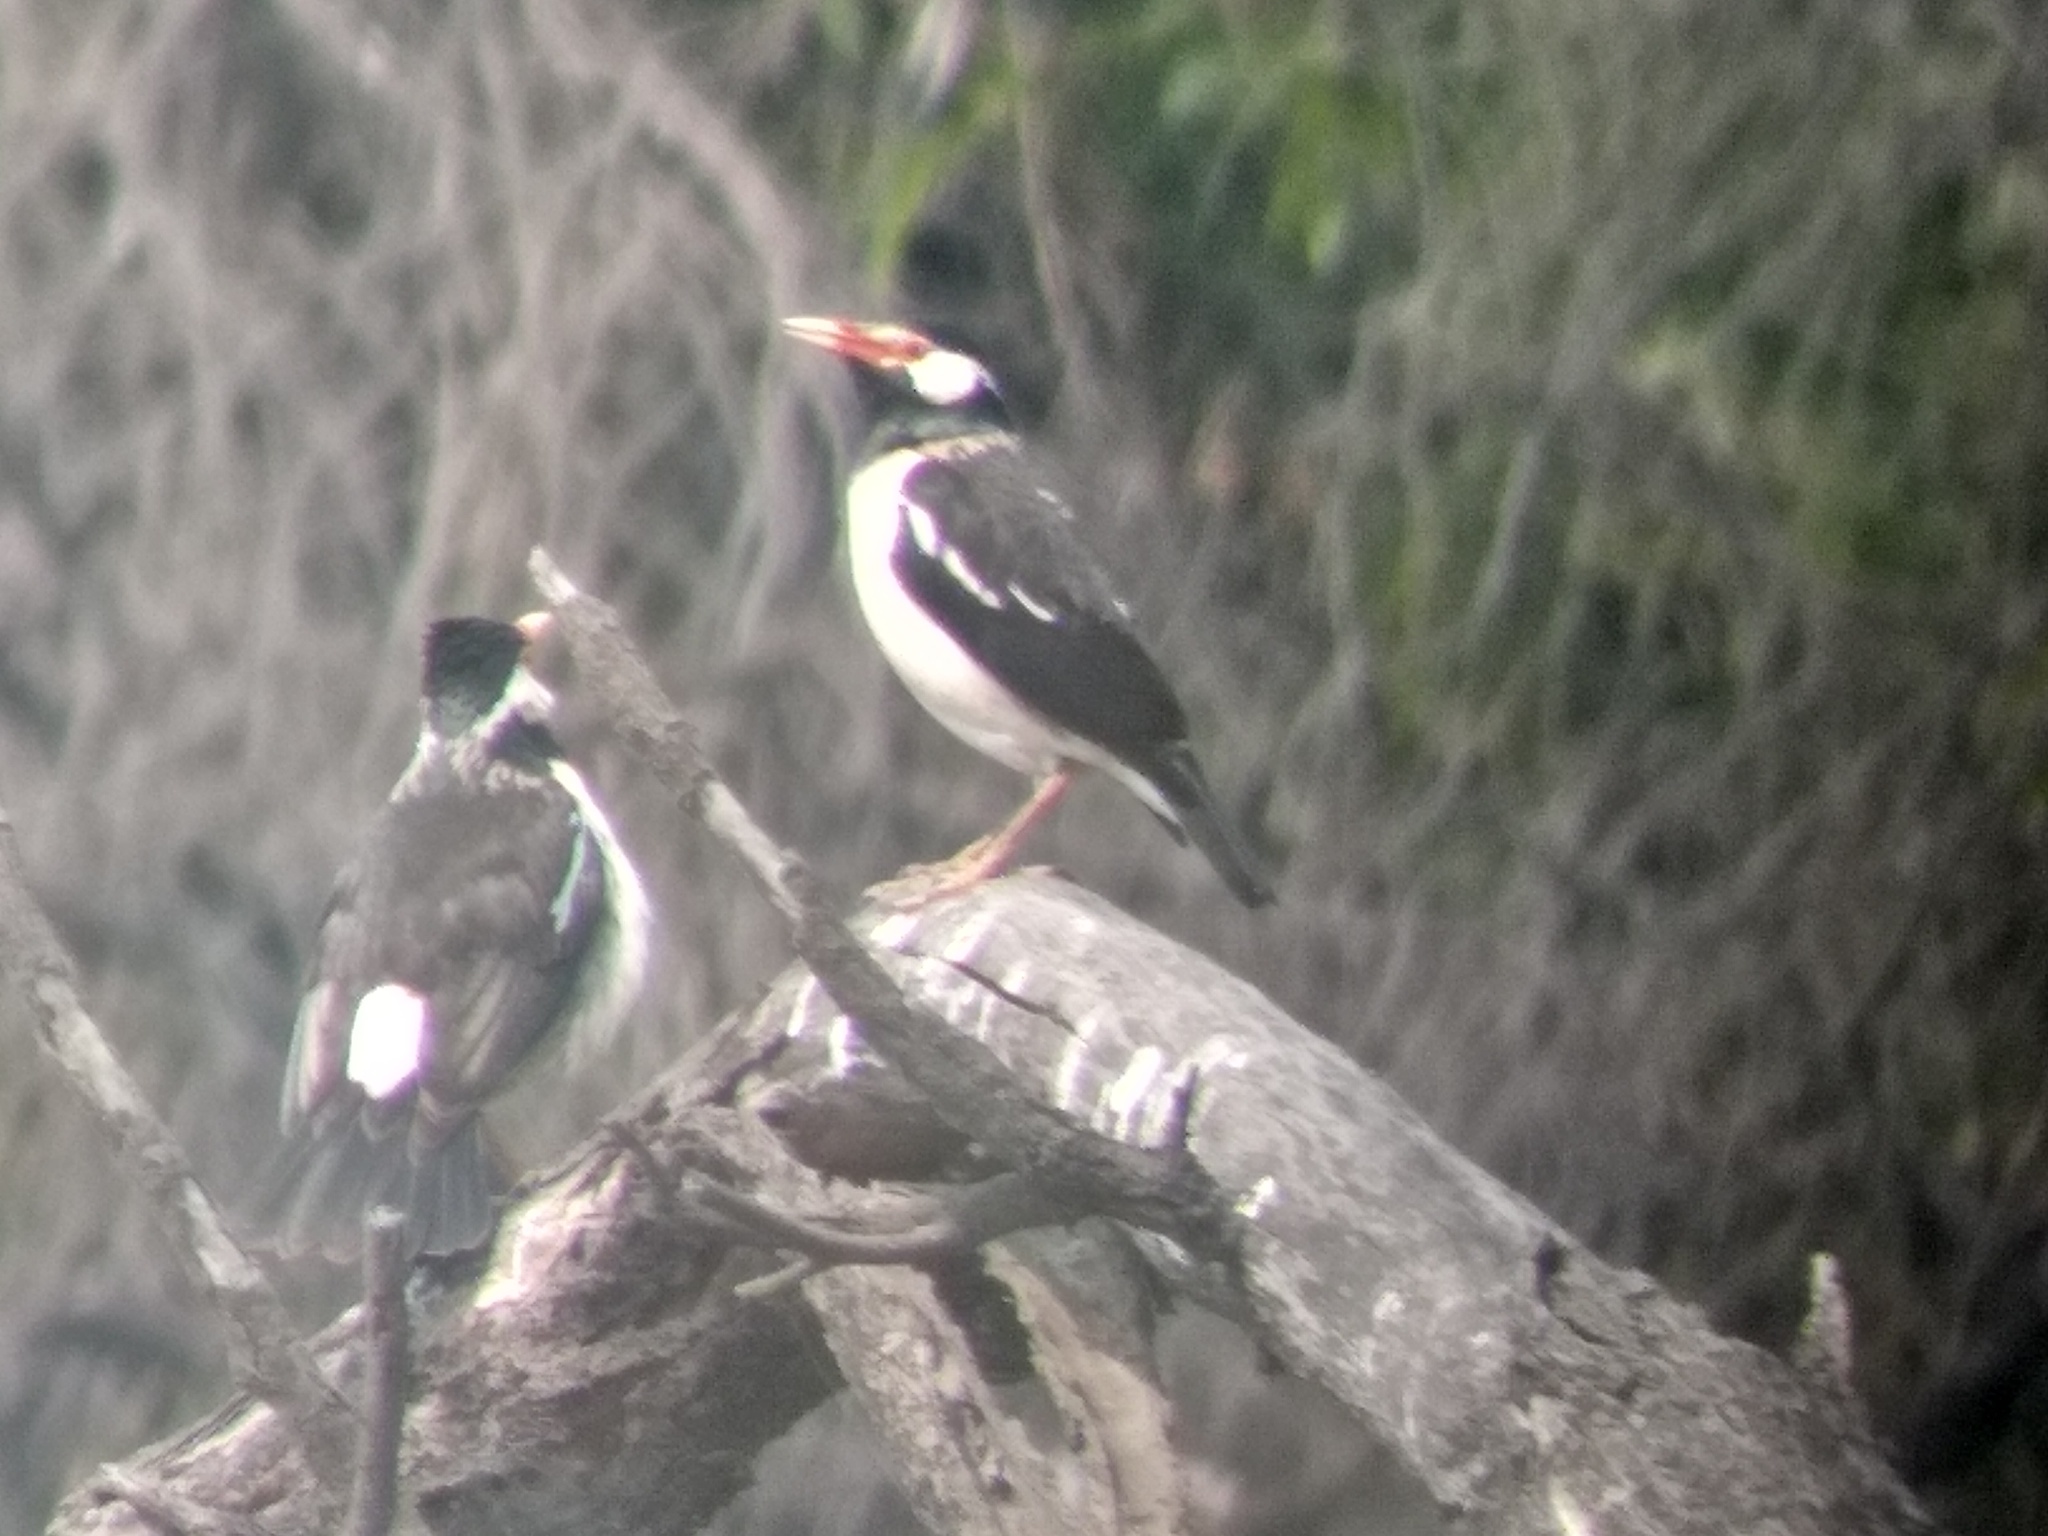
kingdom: Animalia
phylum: Chordata
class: Aves
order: Passeriformes
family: Sturnidae
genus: Gracupica
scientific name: Gracupica contra
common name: Pied myna
